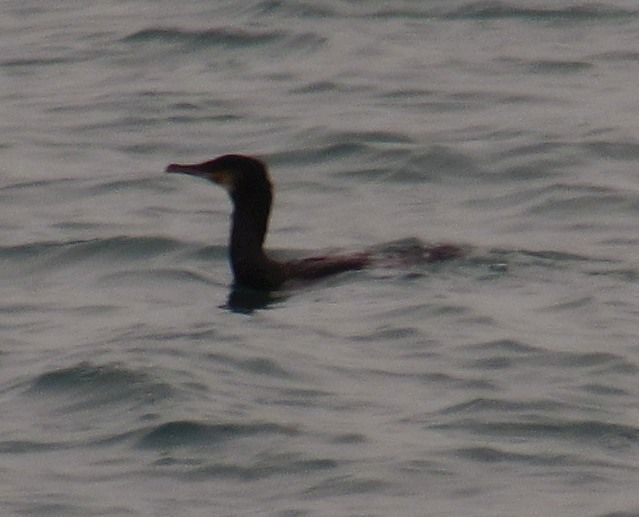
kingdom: Animalia
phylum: Chordata
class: Aves
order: Suliformes
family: Phalacrocoracidae
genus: Phalacrocorax
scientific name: Phalacrocorax carbo
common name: Great cormorant
